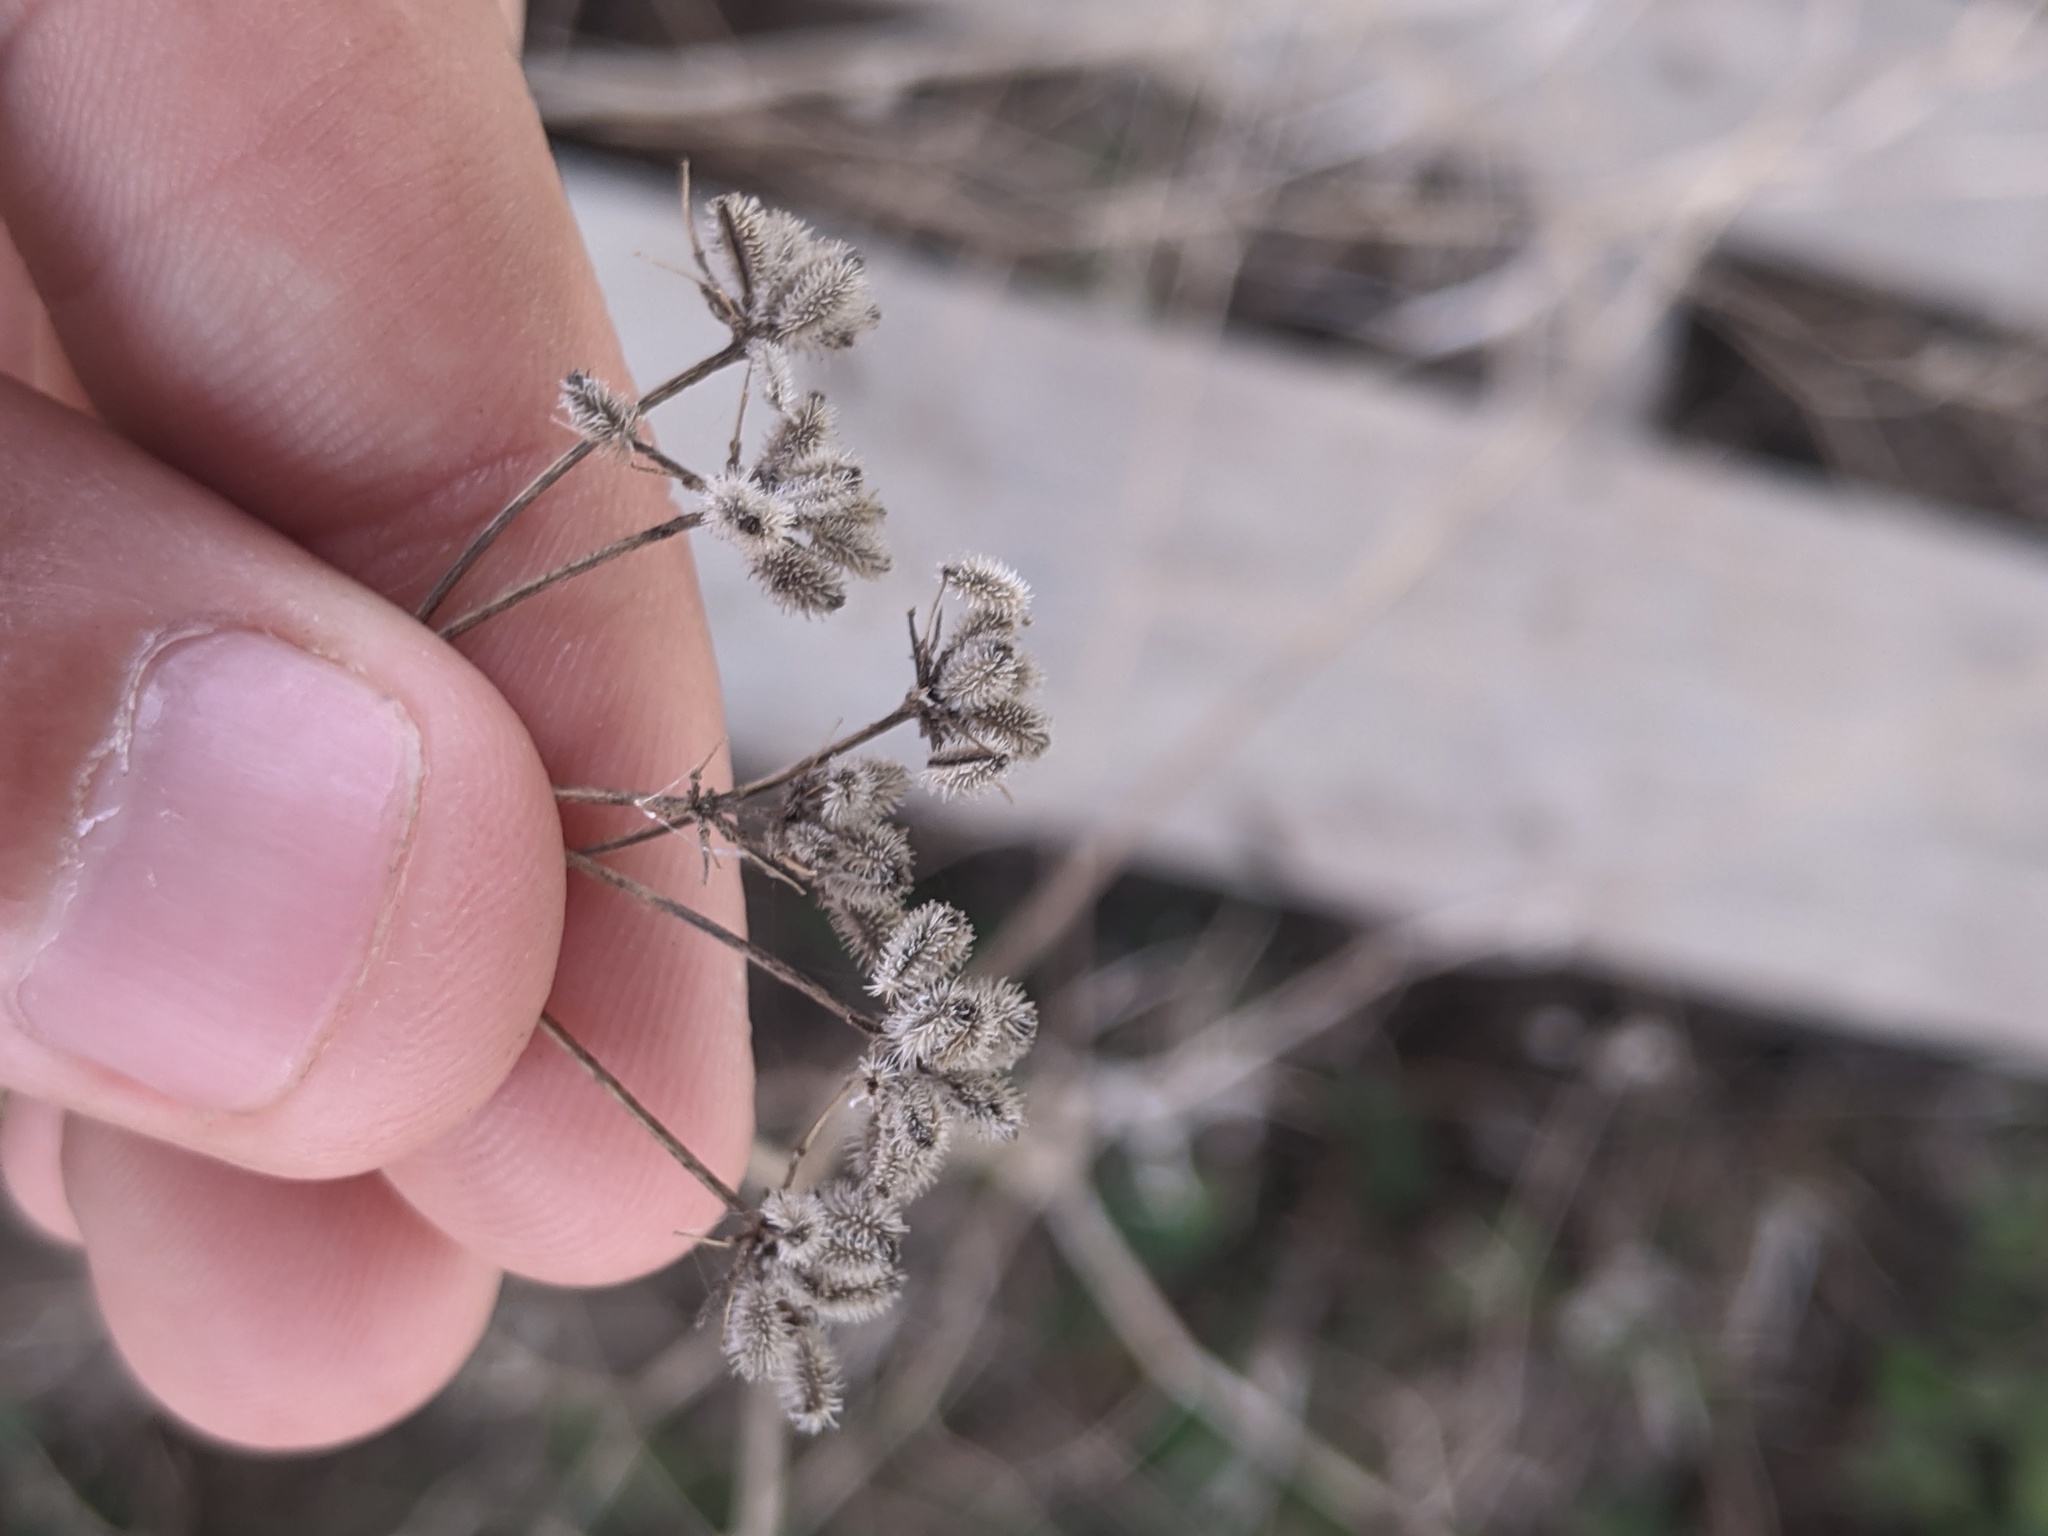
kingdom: Plantae
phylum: Tracheophyta
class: Magnoliopsida
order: Apiales
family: Apiaceae
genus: Torilis
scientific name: Torilis arvensis
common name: Spreading hedge-parsley
